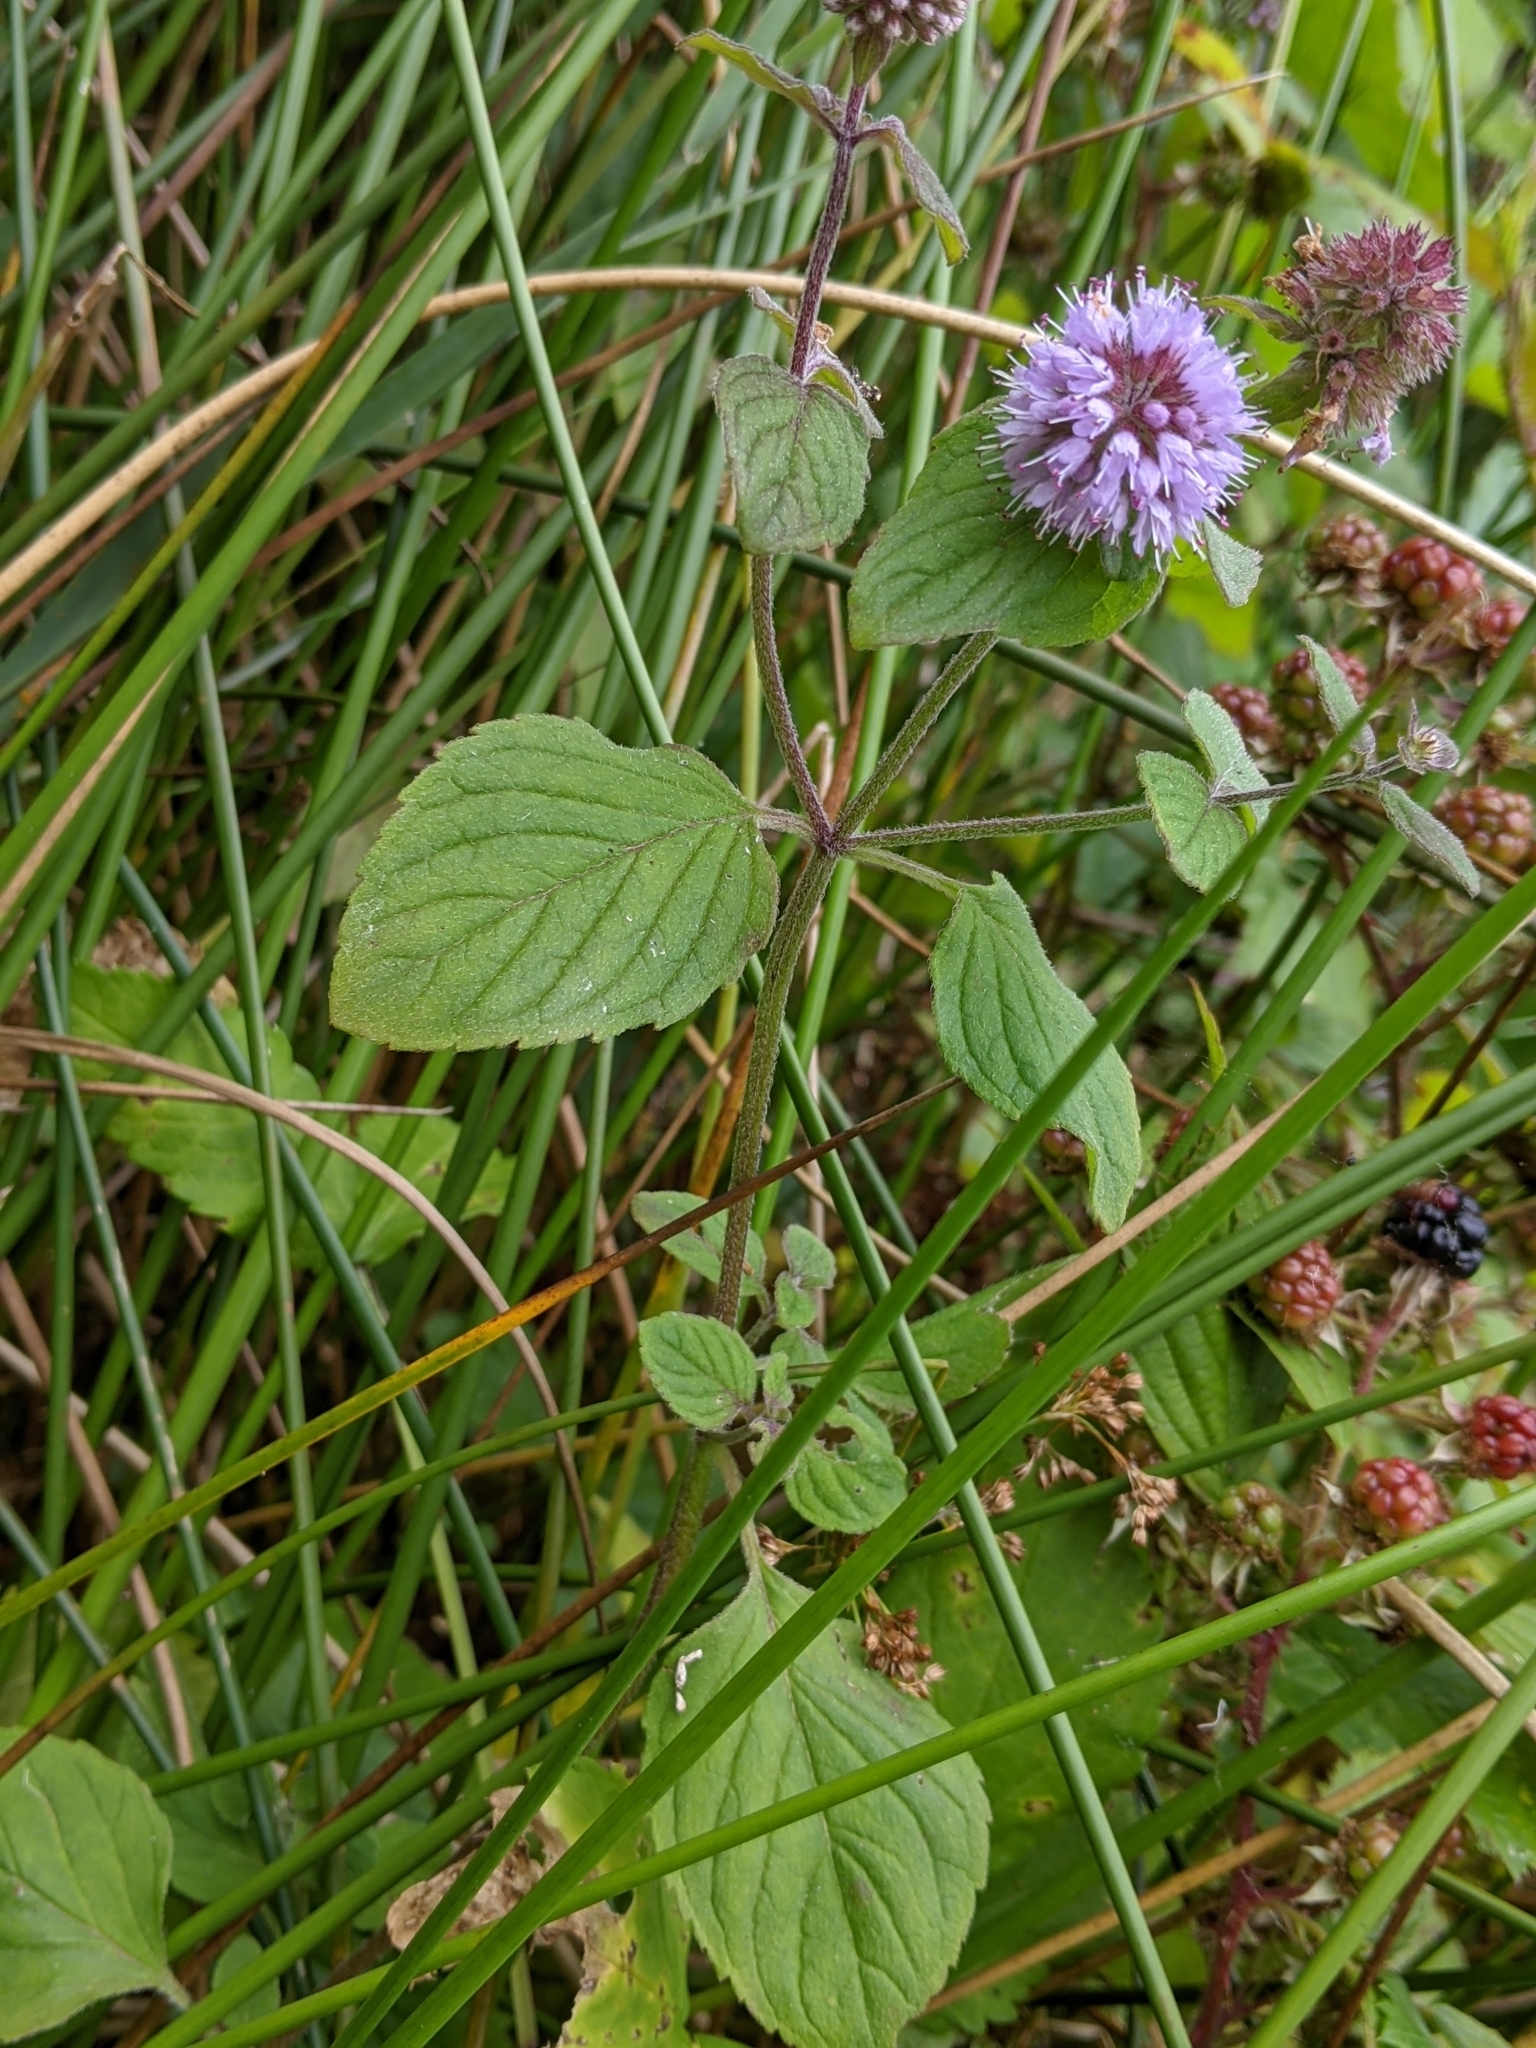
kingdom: Plantae
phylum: Tracheophyta
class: Magnoliopsida
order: Lamiales
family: Lamiaceae
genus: Mentha
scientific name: Mentha aquatica
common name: Water mint
